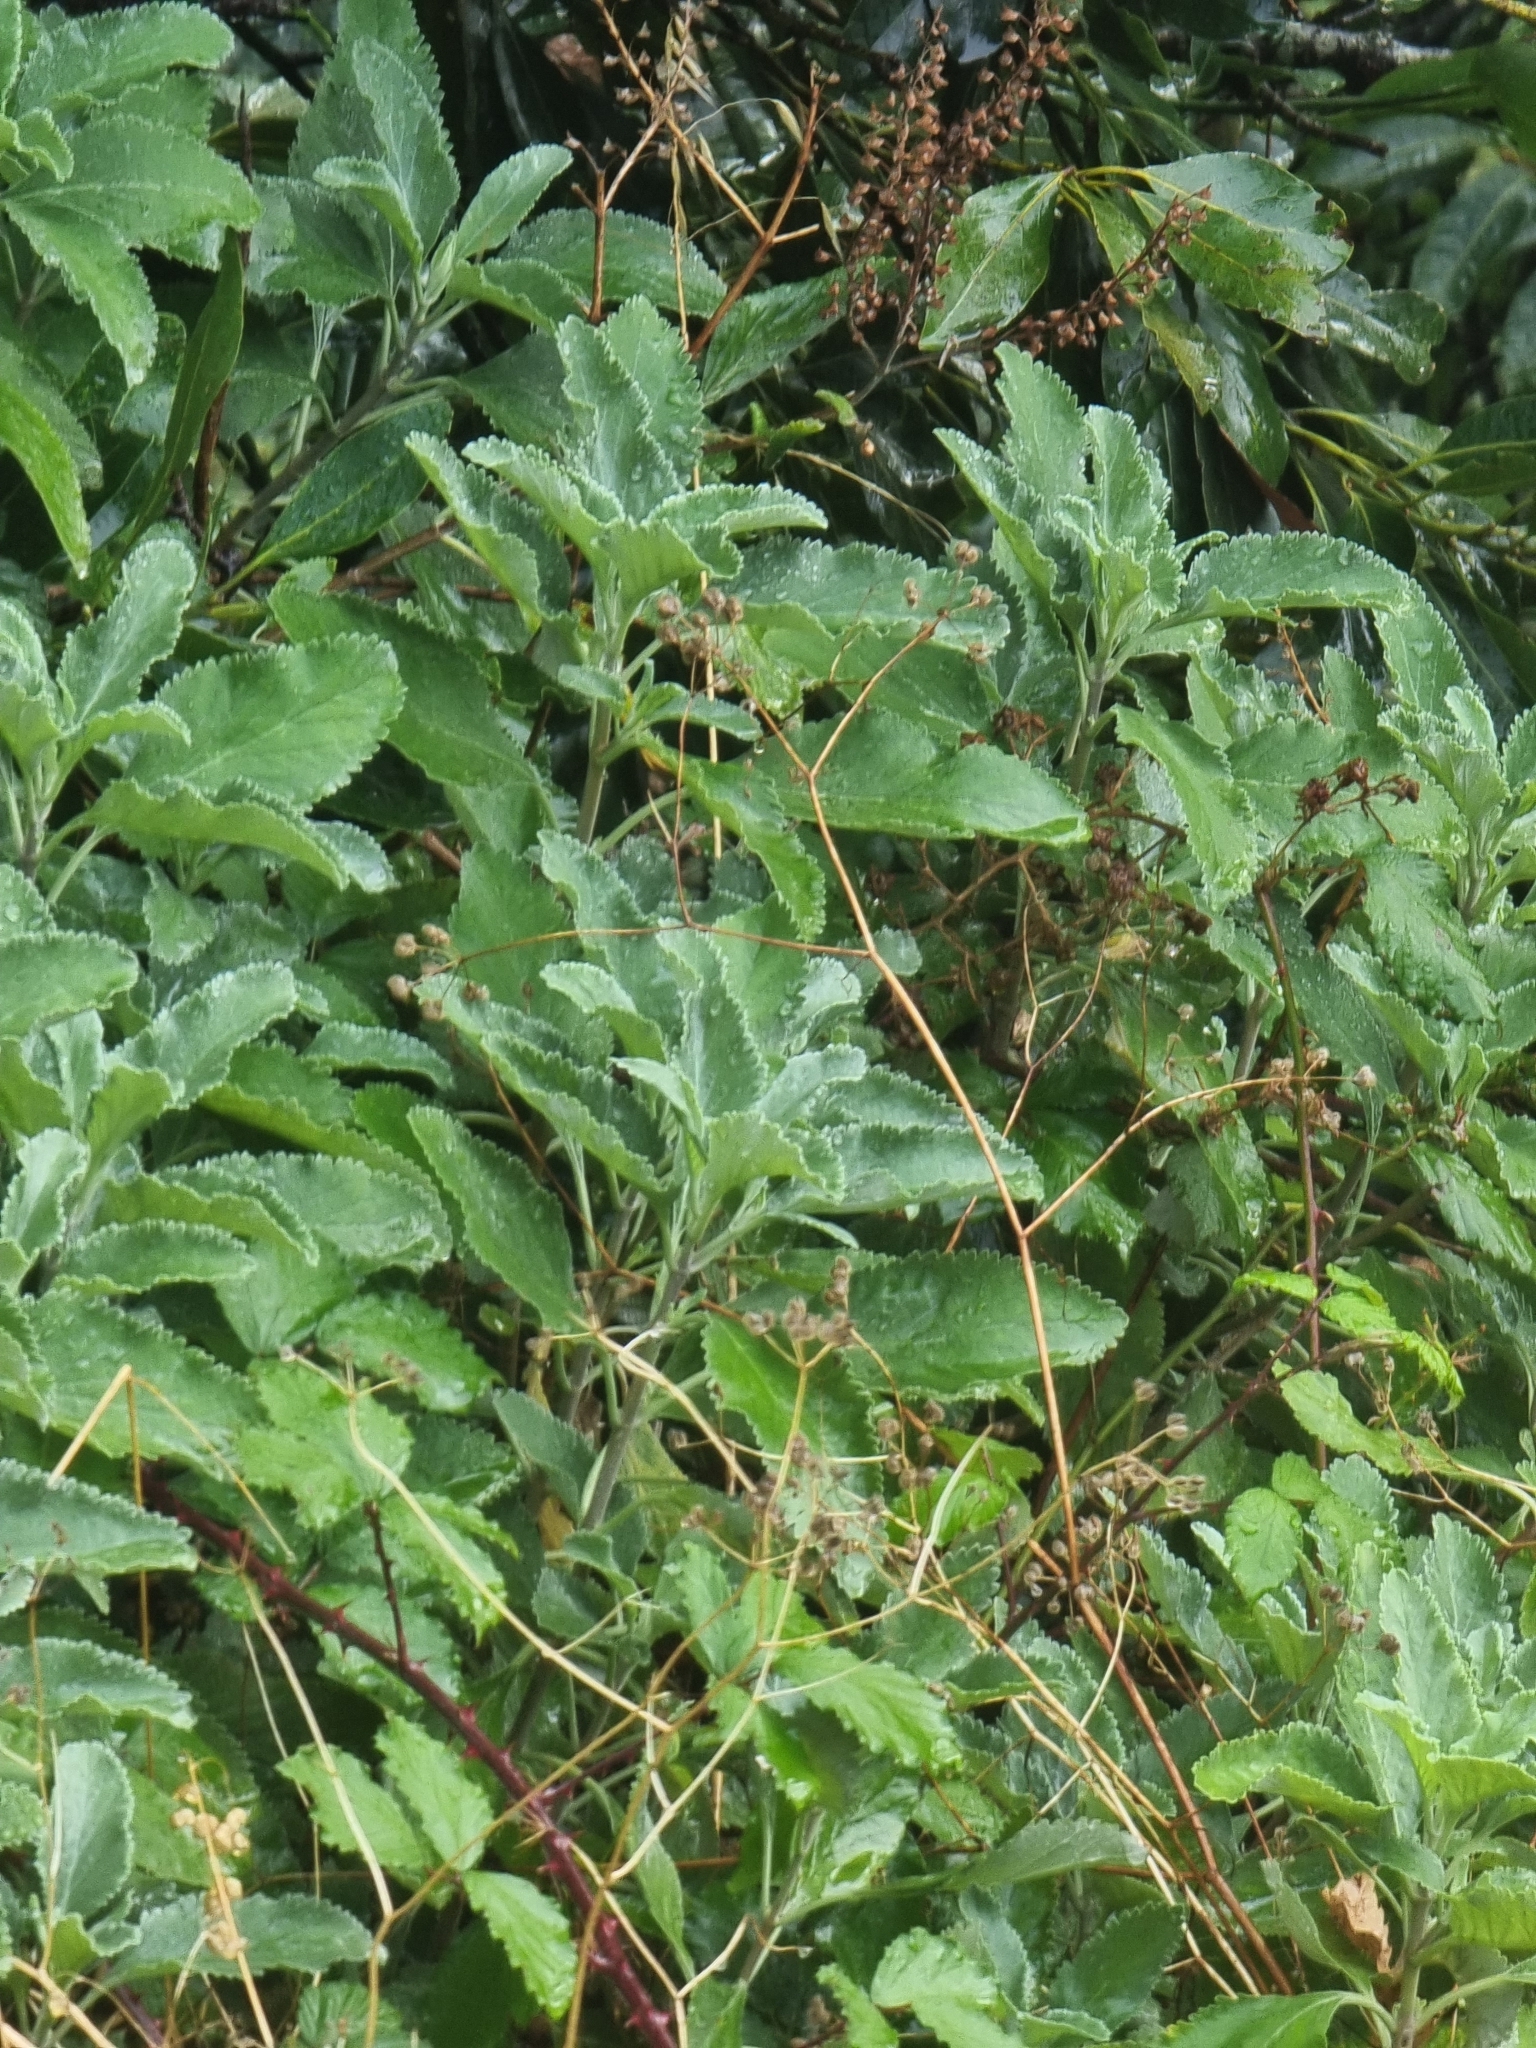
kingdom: Plantae
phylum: Tracheophyta
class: Magnoliopsida
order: Lamiales
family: Lamiaceae
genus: Teucrium
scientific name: Teucrium betonicum
